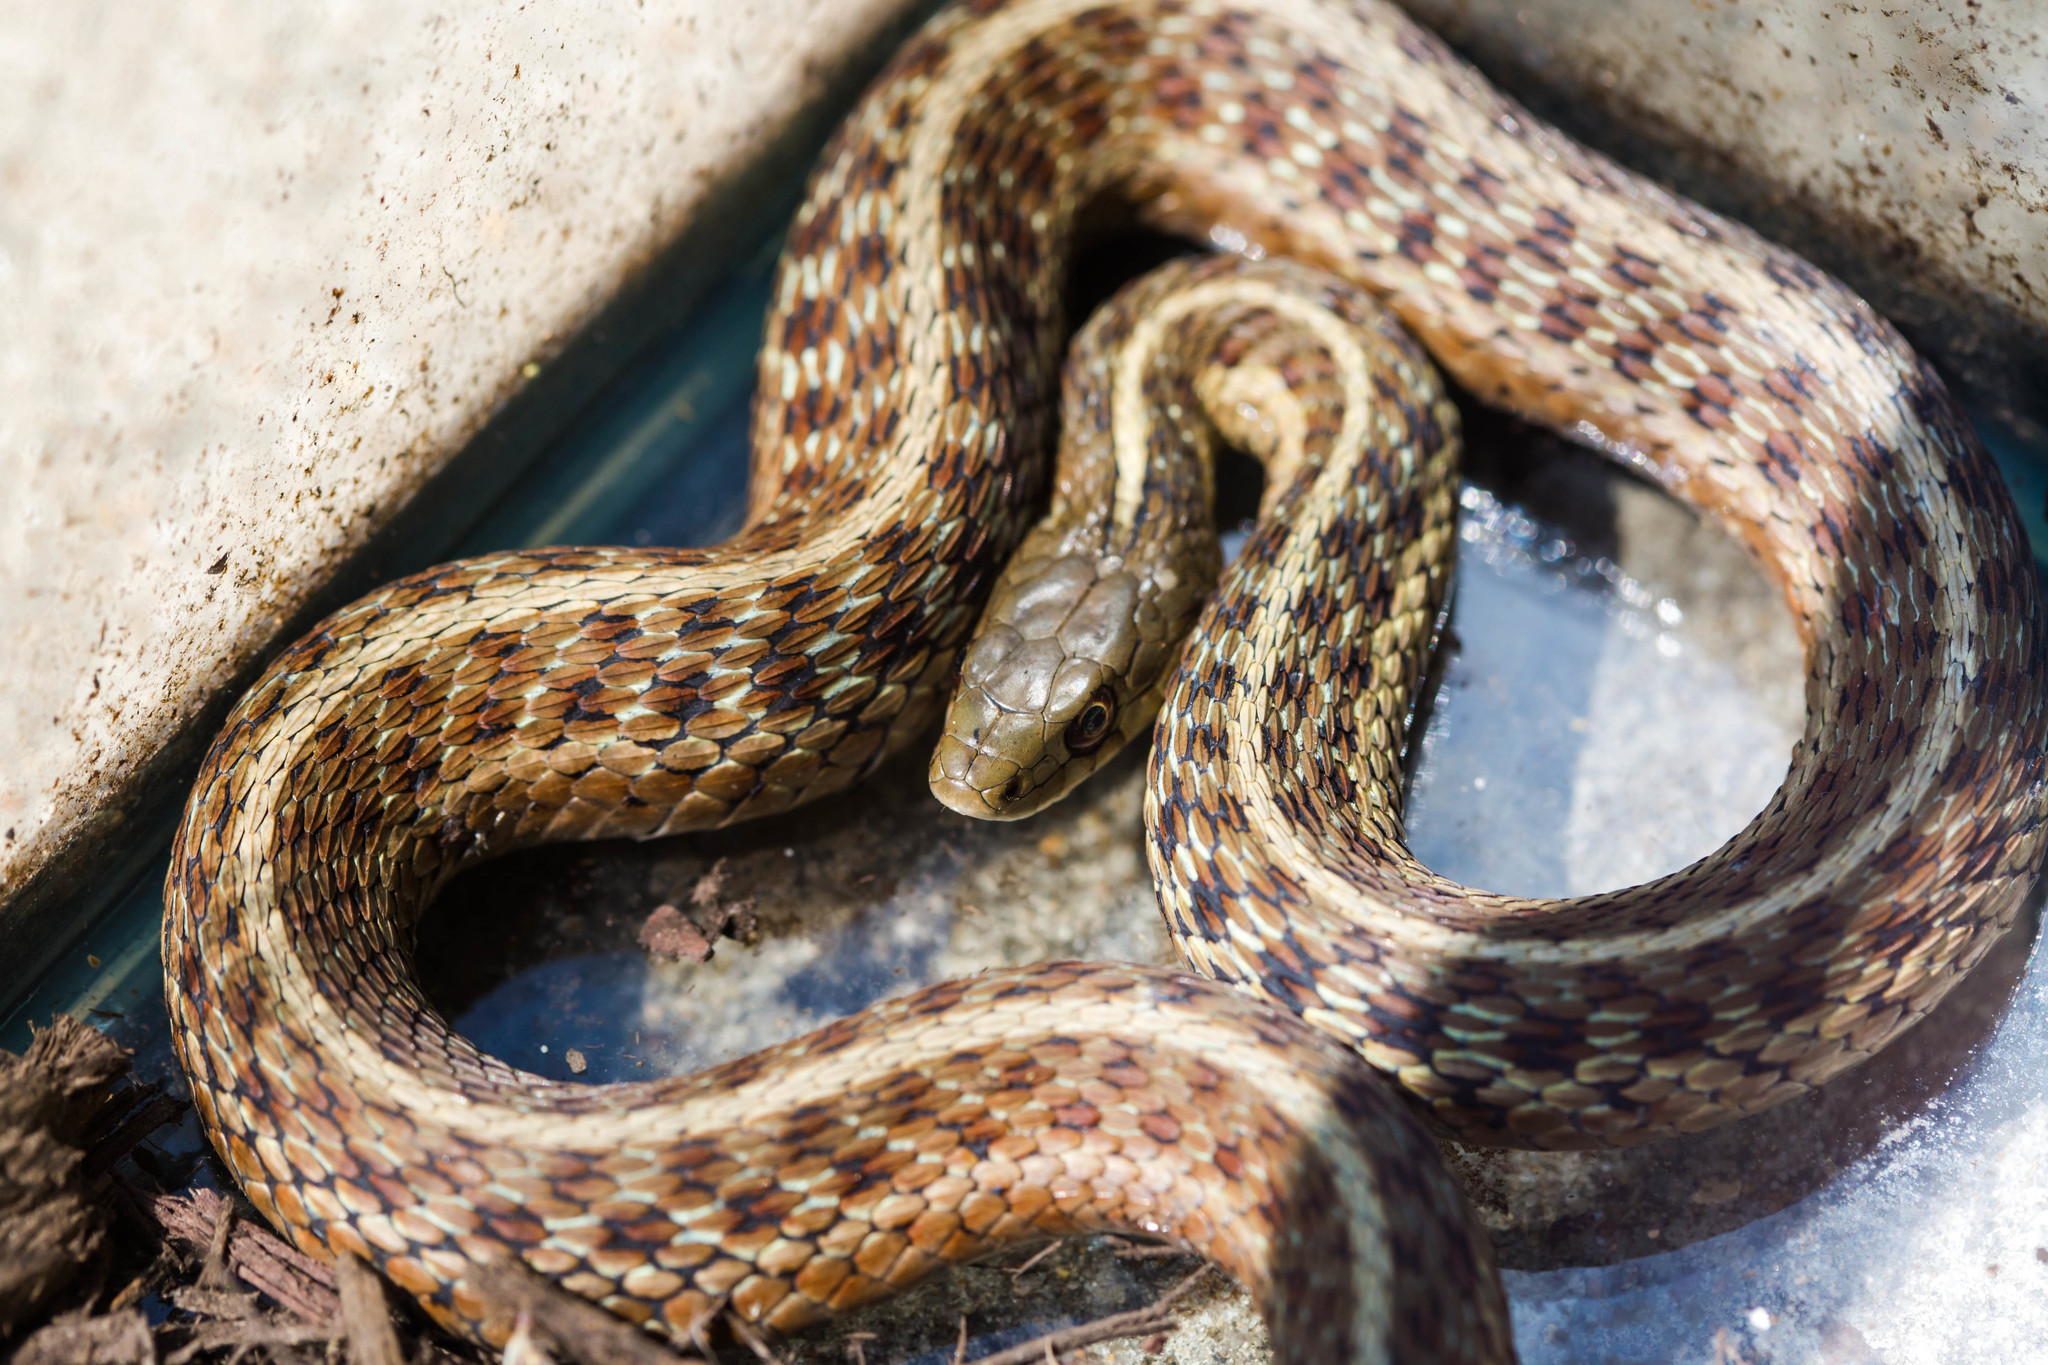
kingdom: Animalia
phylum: Chordata
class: Squamata
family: Colubridae
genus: Thamnophis
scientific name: Thamnophis sirtalis
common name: Common garter snake
